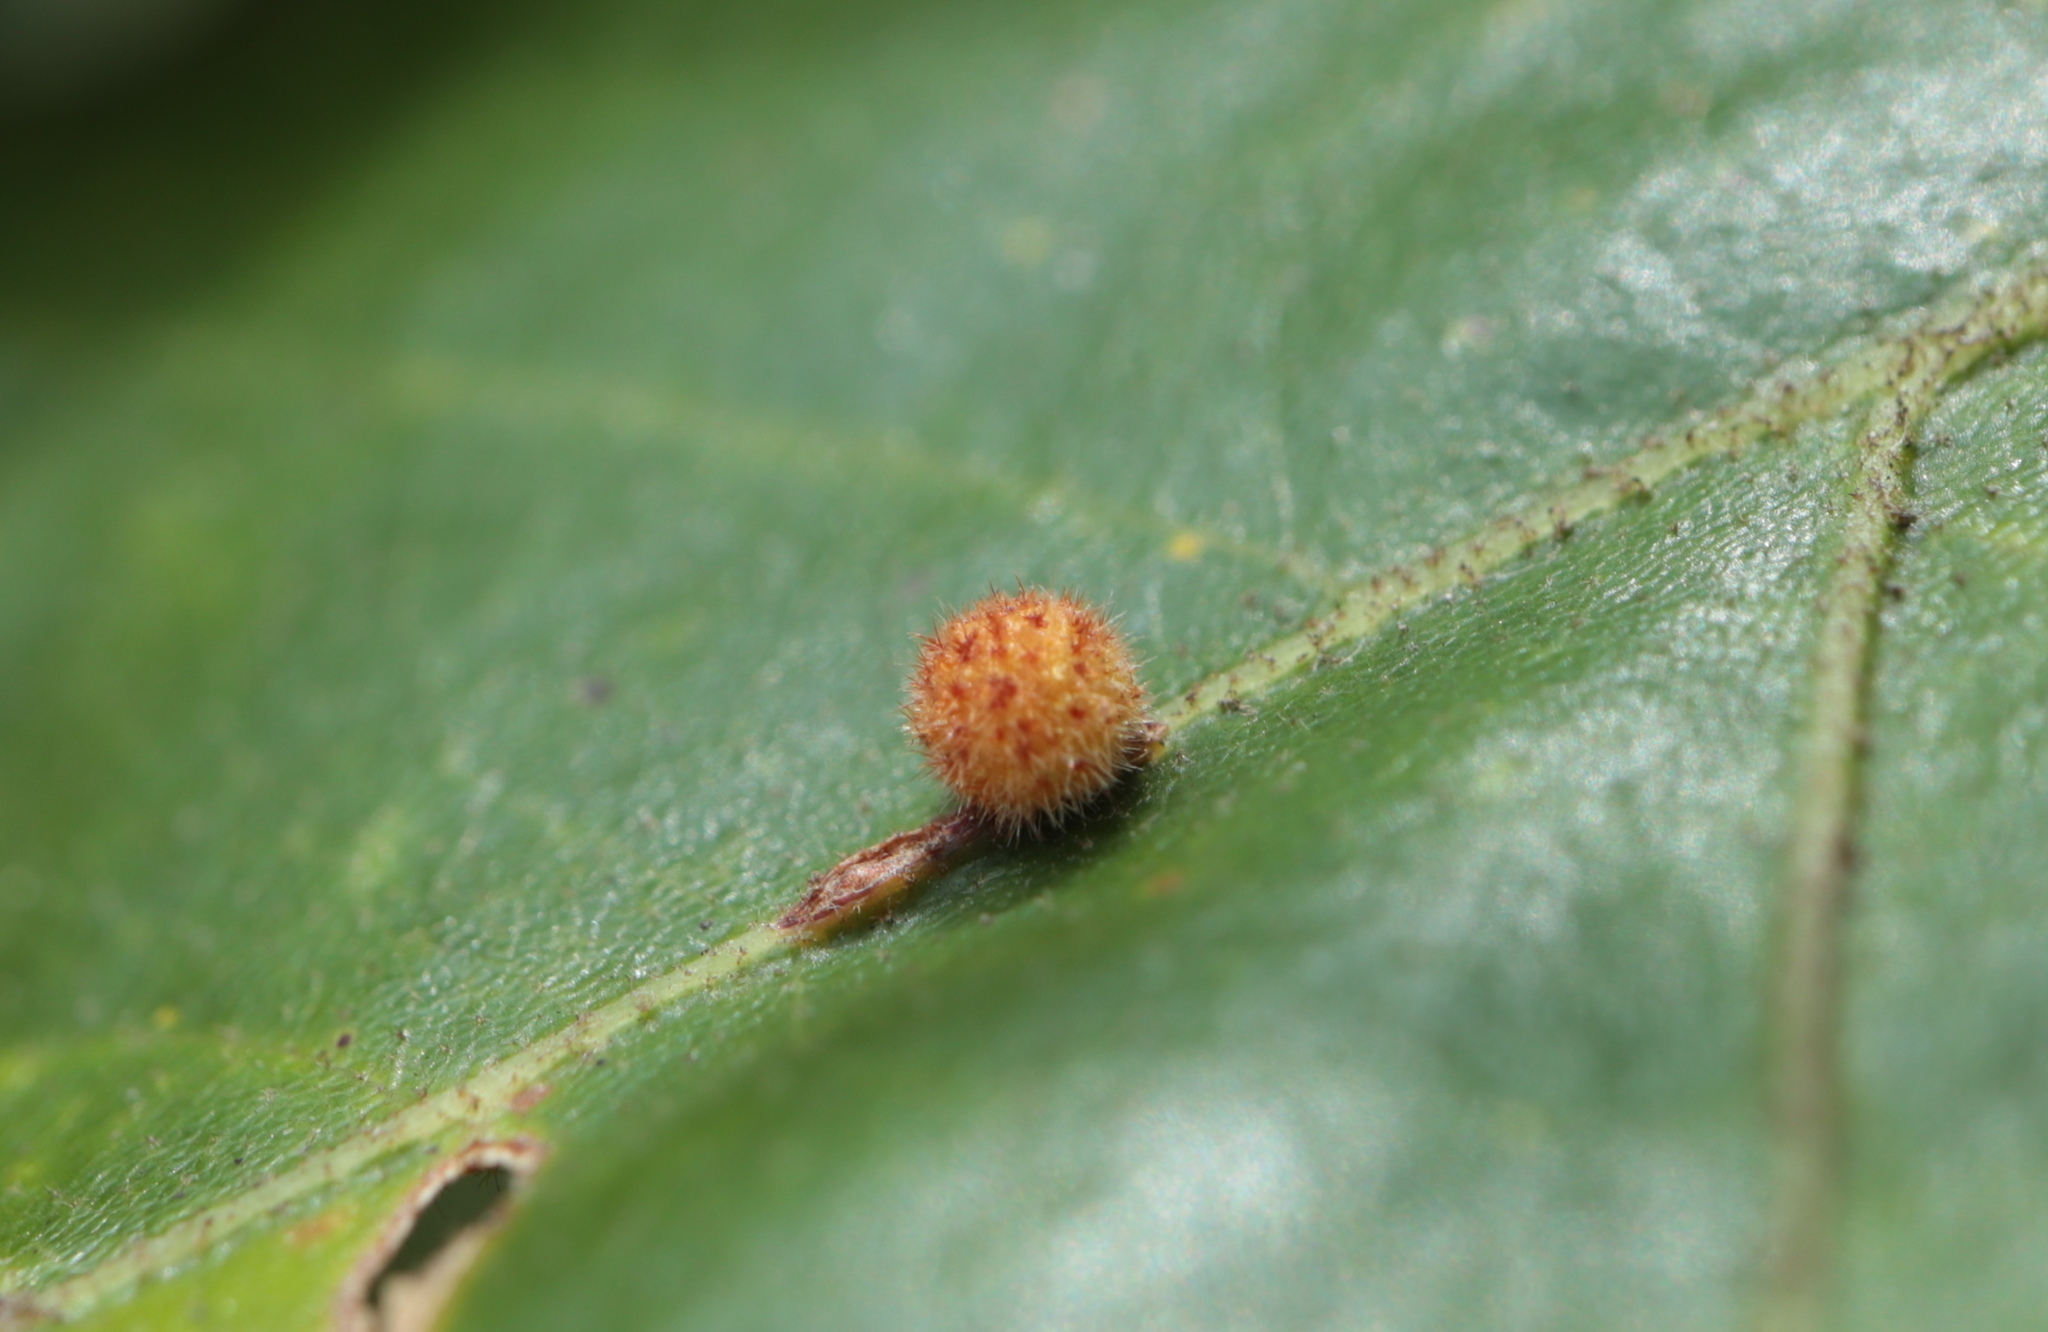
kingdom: Animalia
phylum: Arthropoda
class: Insecta
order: Hymenoptera
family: Cynipidae
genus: Biorhiza
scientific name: Biorhiza Sphaeroteras carolina
